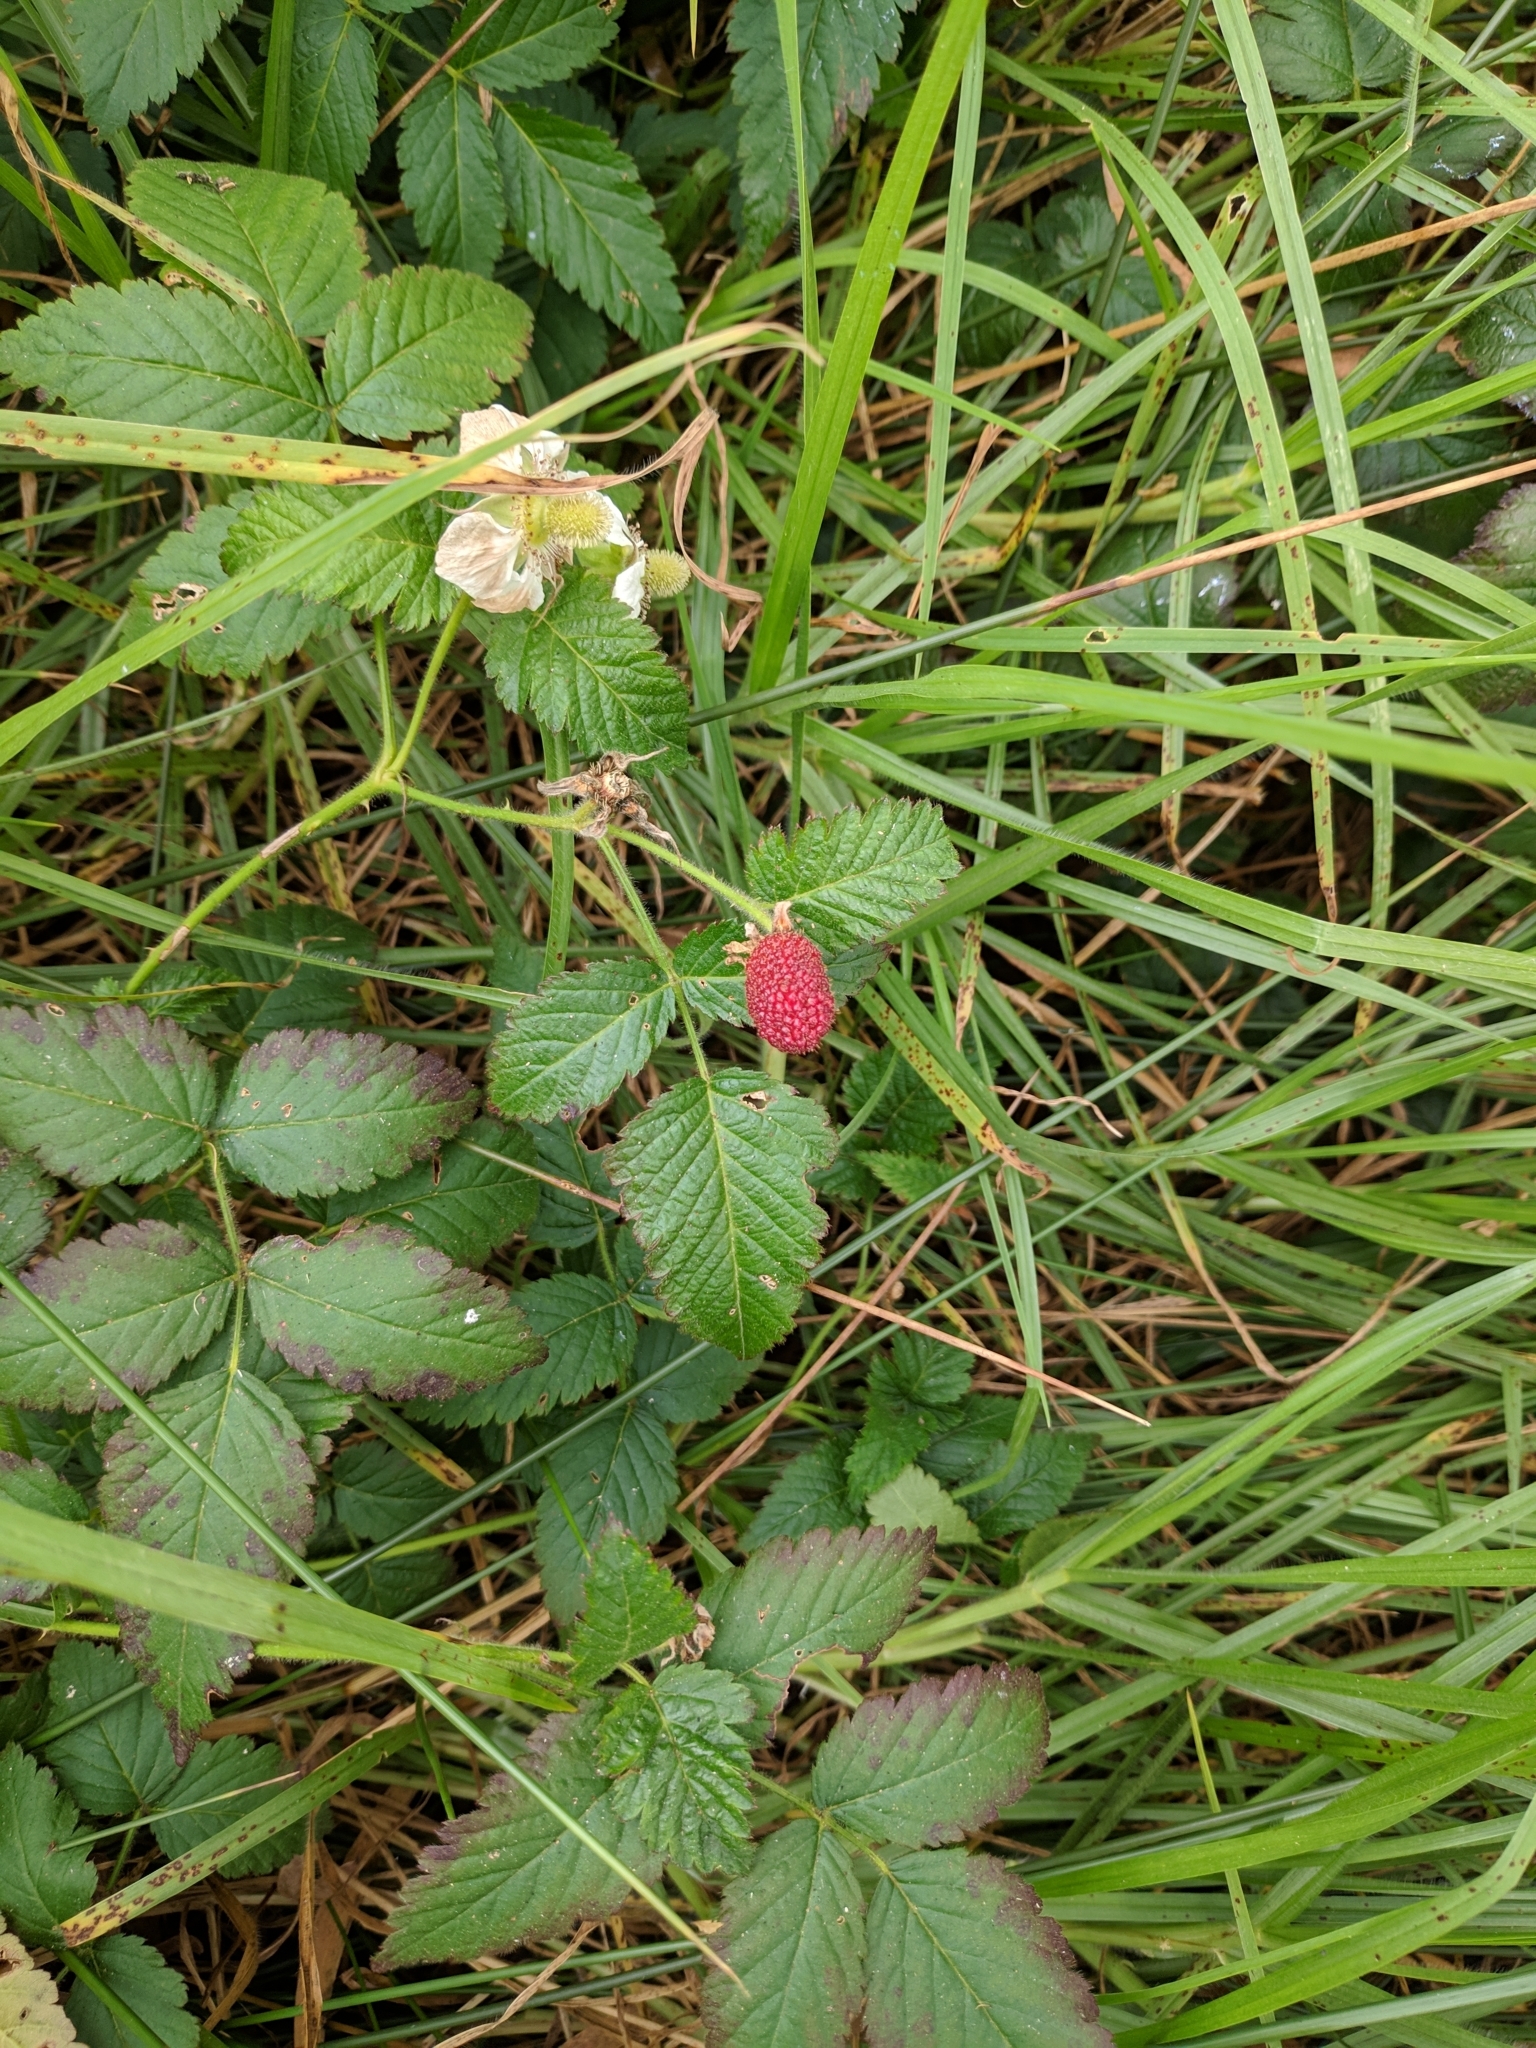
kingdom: Plantae
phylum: Tracheophyta
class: Magnoliopsida
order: Rosales
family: Rosaceae
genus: Rubus
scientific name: Rubus rosifolius
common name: Roseleaf raspberry
